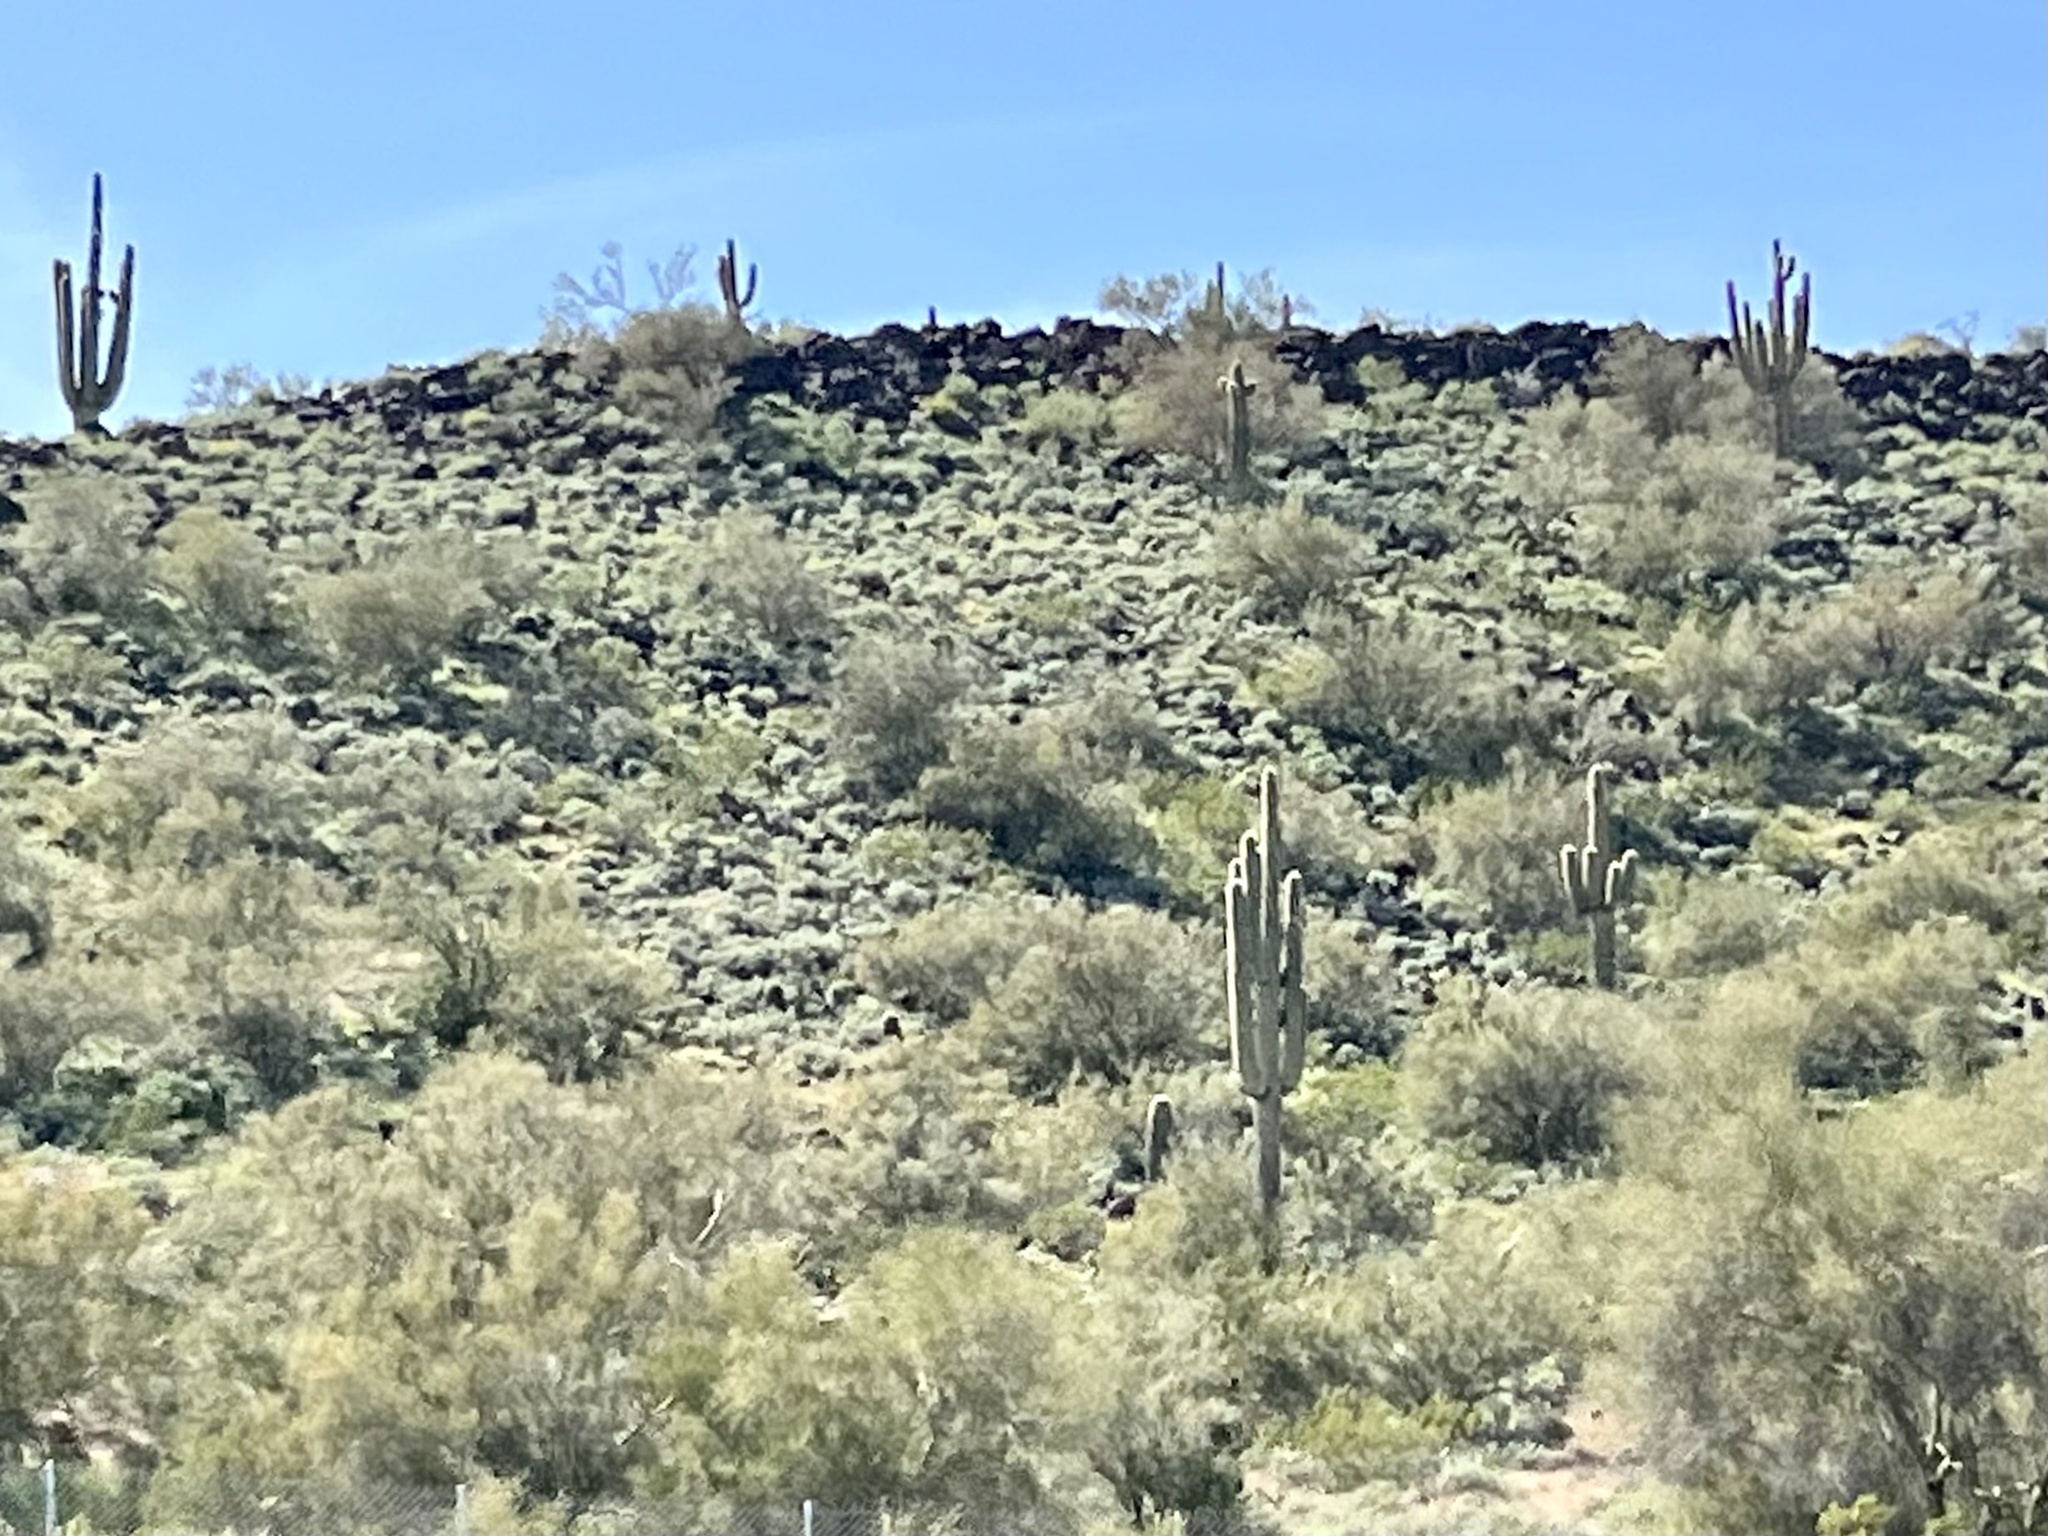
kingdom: Plantae
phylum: Tracheophyta
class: Magnoliopsida
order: Caryophyllales
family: Cactaceae
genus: Carnegiea
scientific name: Carnegiea gigantea
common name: Saguaro
